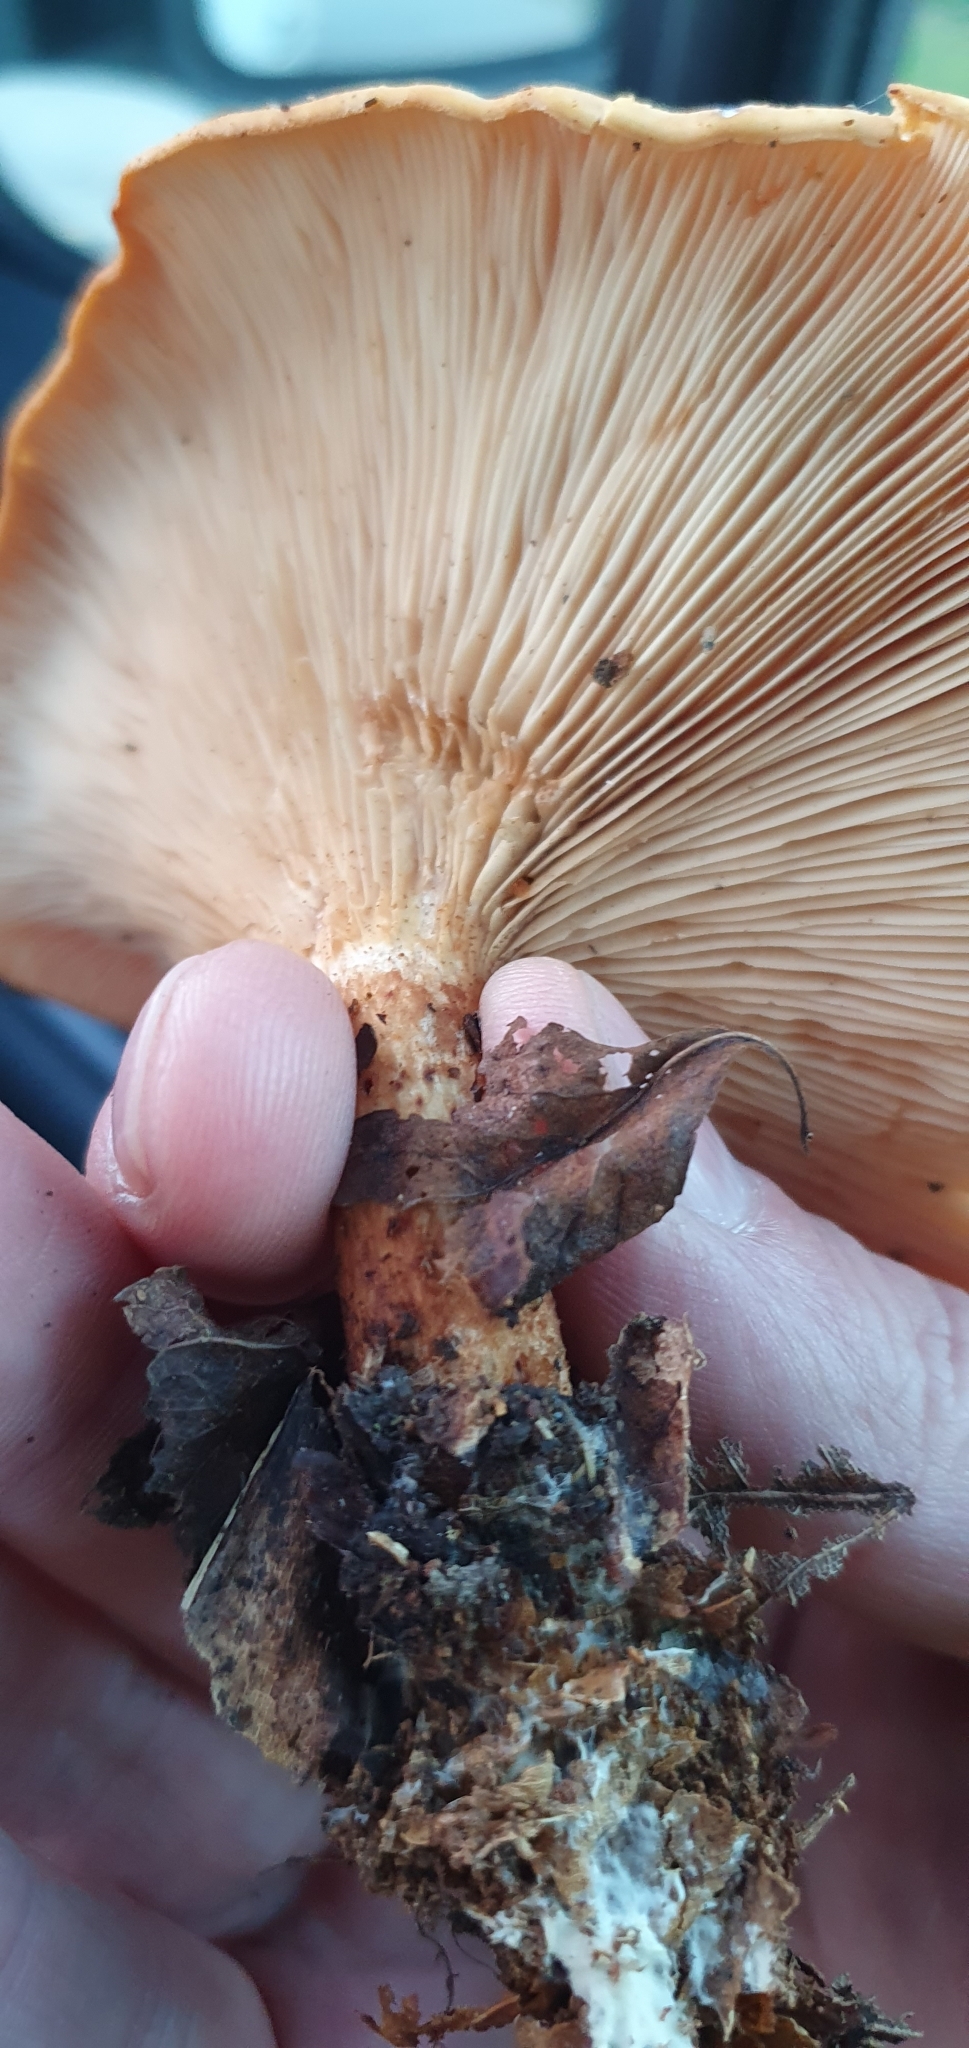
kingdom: Fungi
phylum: Basidiomycota
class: Agaricomycetes
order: Agaricales
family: Tricholomataceae
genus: Paralepista
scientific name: Paralepista flaccida
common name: Tawny funnel cap
